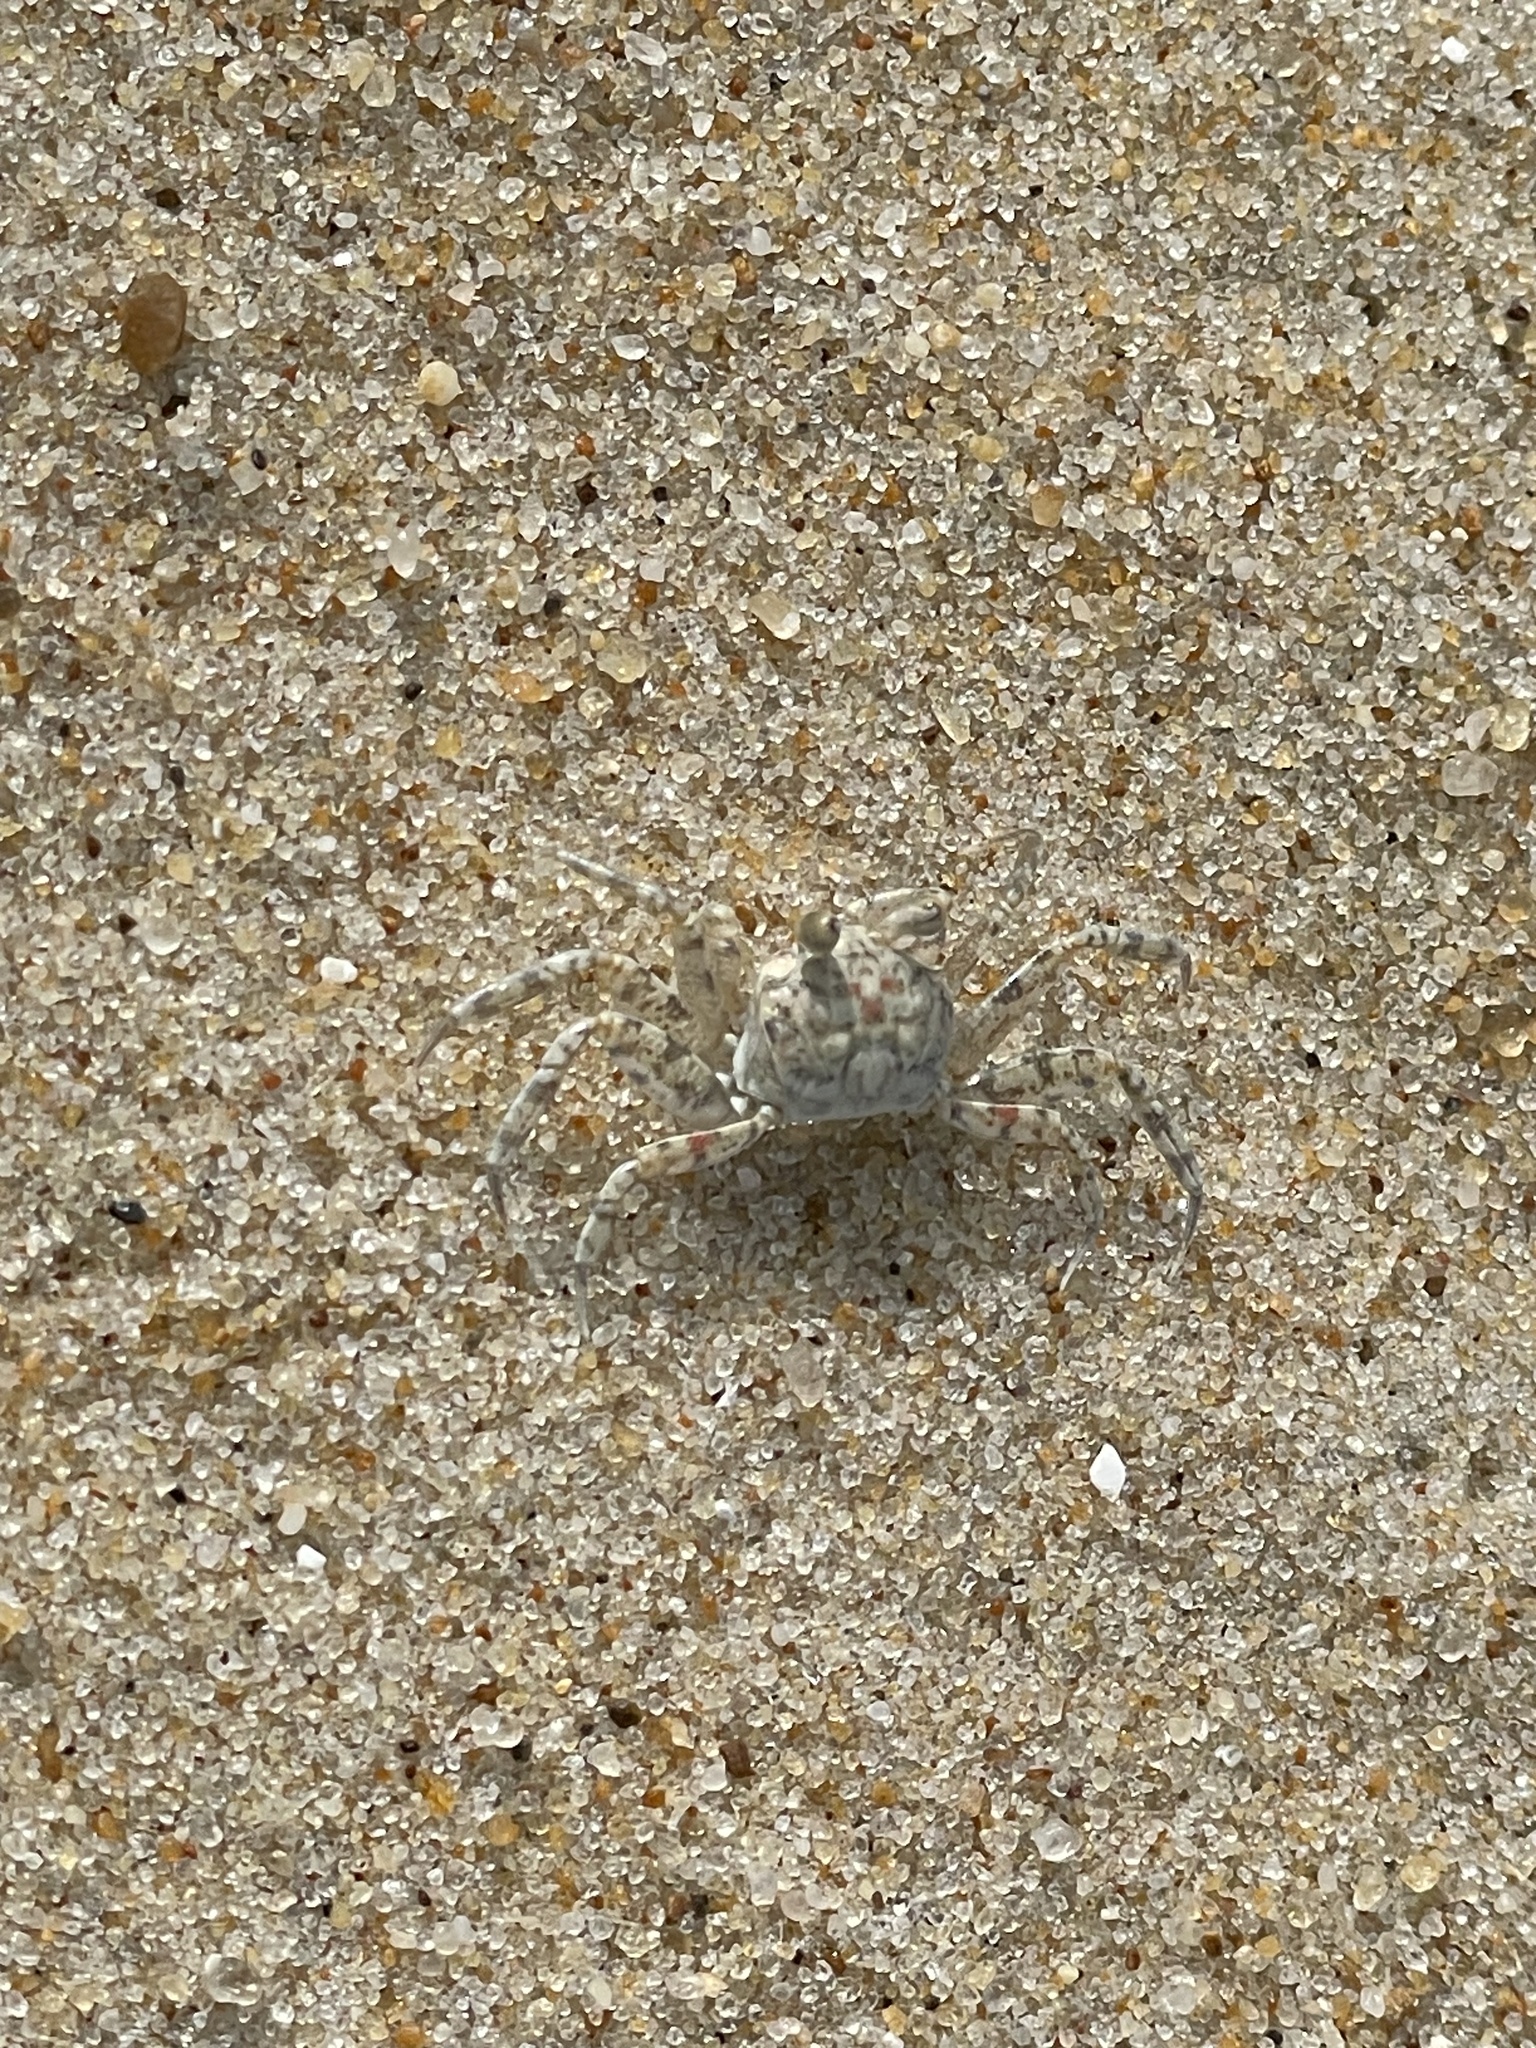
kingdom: Animalia
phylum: Arthropoda
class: Malacostraca
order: Decapoda
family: Ocypodidae
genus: Ocypode
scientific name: Ocypode quadrata
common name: Ghost crab
